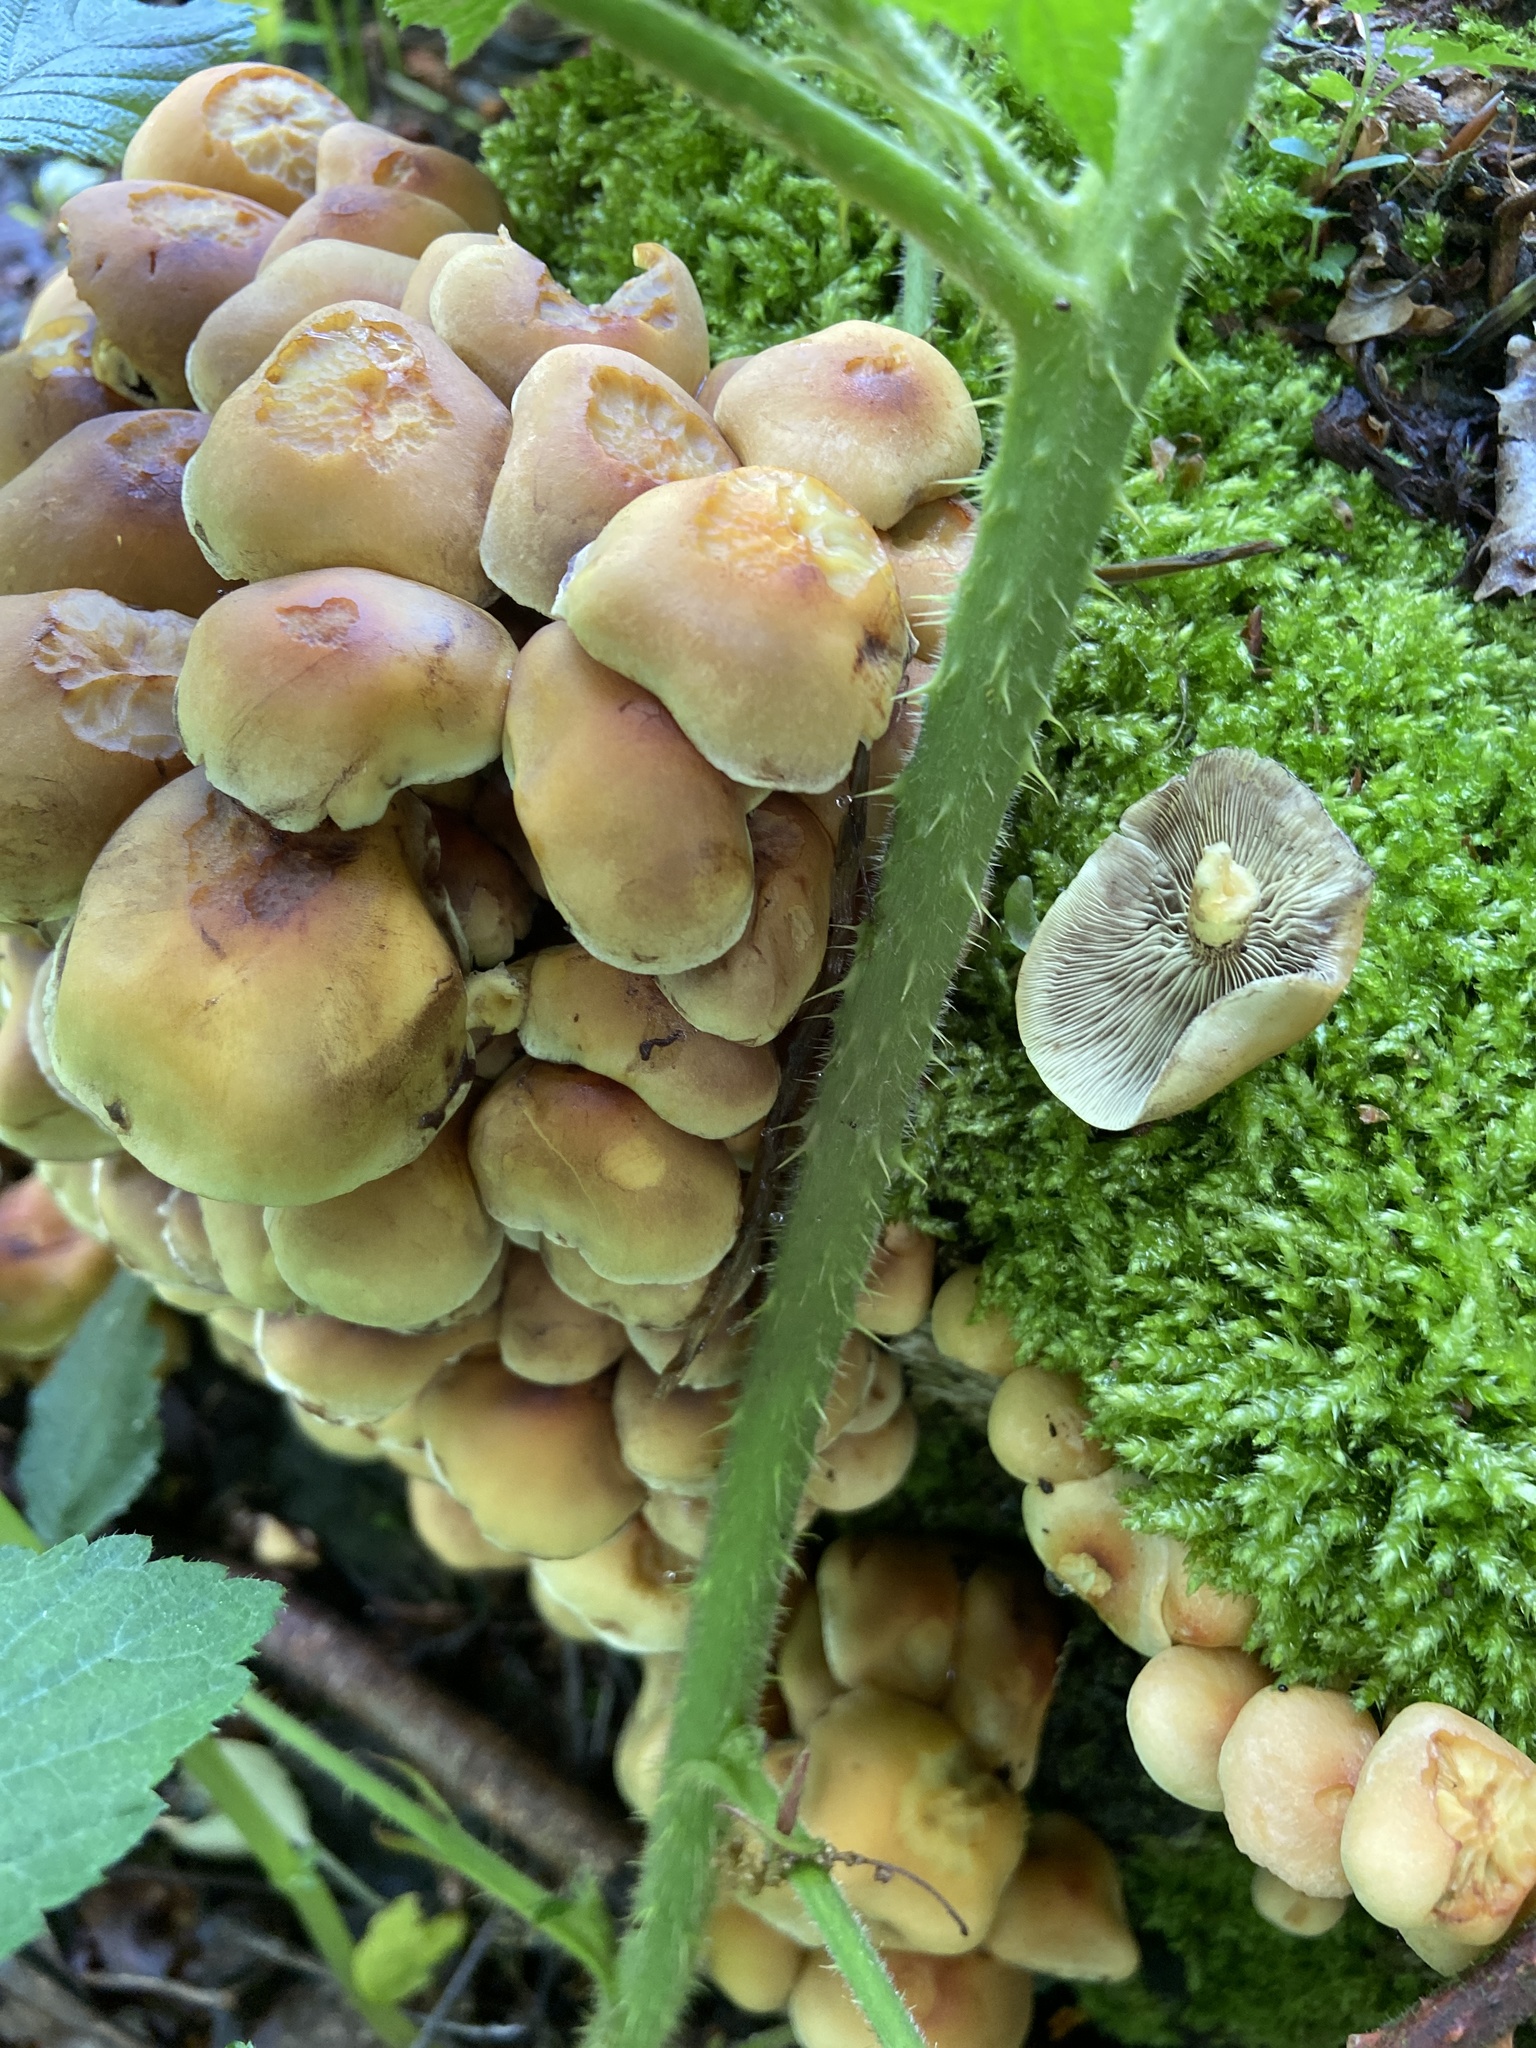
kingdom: Fungi
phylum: Basidiomycota
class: Agaricomycetes
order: Agaricales
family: Strophariaceae
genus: Hypholoma
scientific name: Hypholoma fasciculare
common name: Sulphur tuft
